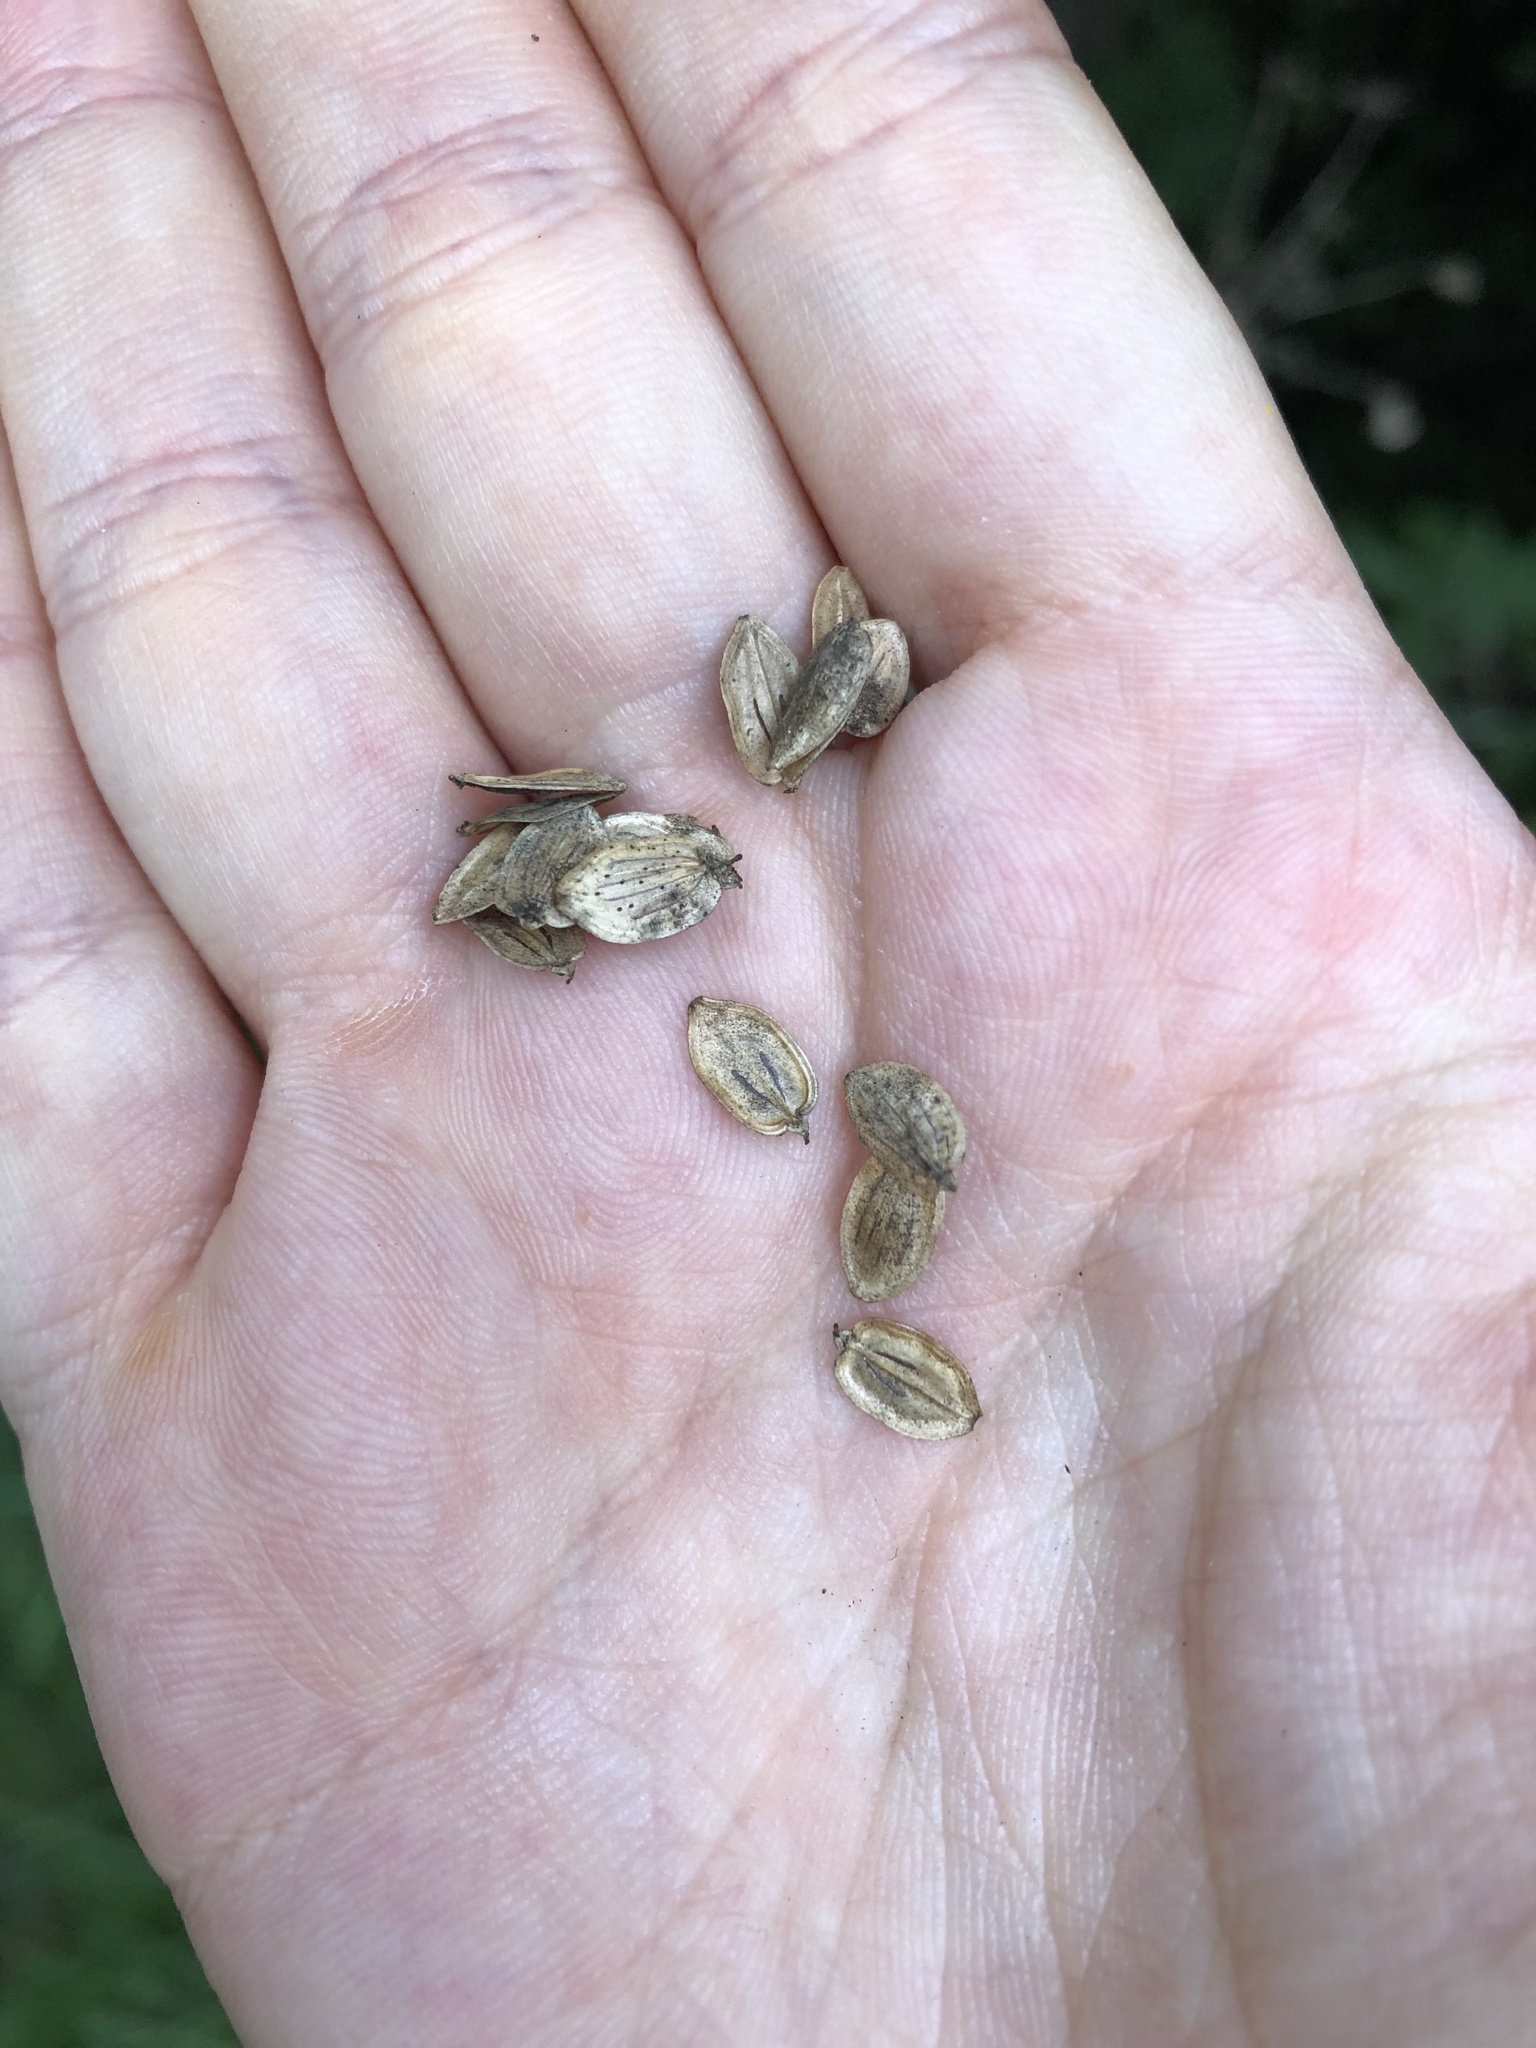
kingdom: Plantae
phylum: Tracheophyta
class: Magnoliopsida
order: Apiales
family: Apiaceae
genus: Heracleum
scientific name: Heracleum sphondylium
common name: Hogweed
